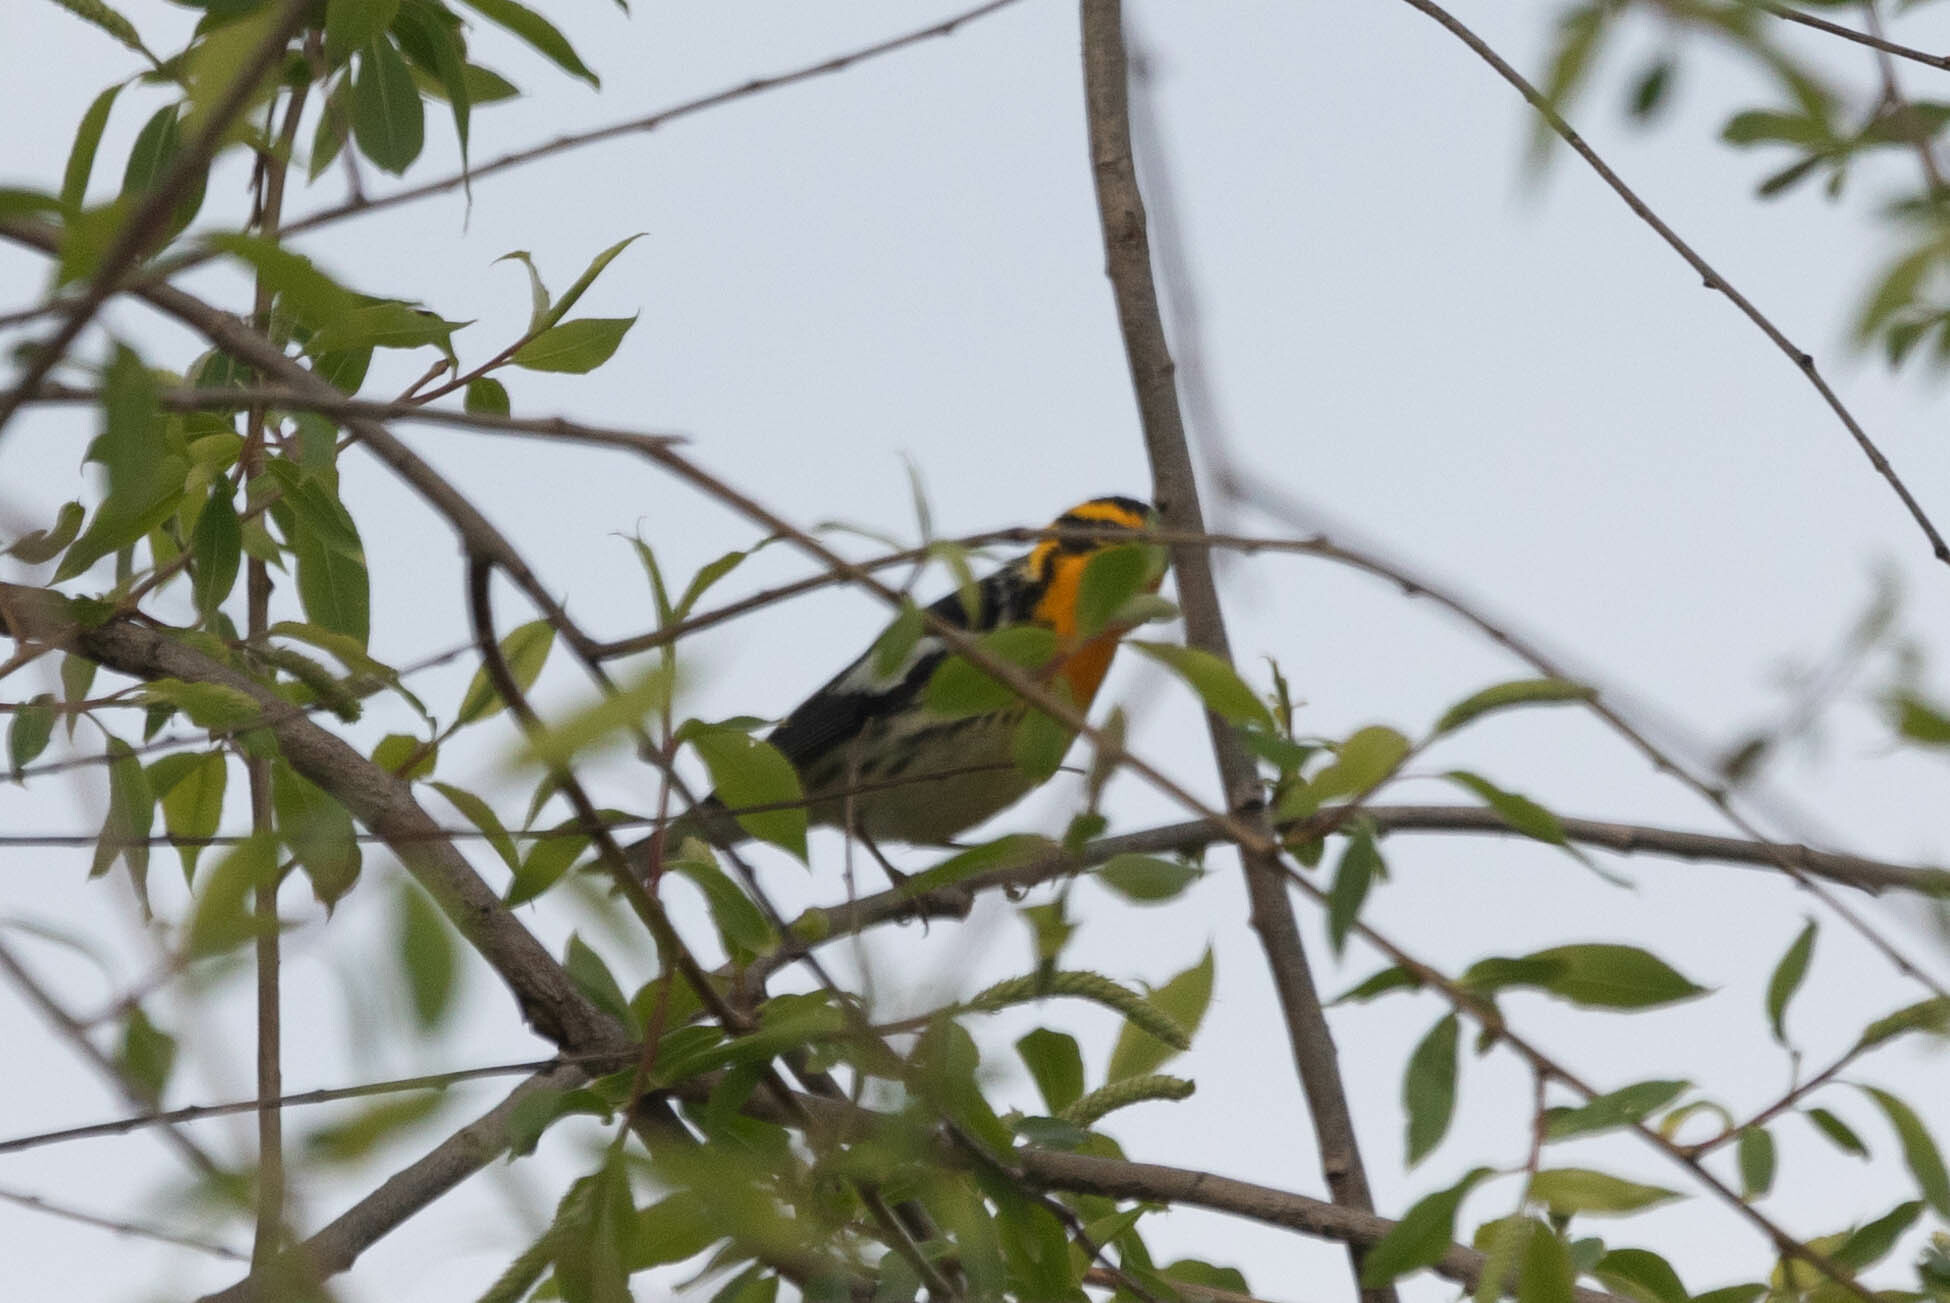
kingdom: Animalia
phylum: Chordata
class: Aves
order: Passeriformes
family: Parulidae
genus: Setophaga
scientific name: Setophaga fusca
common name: Blackburnian warbler
